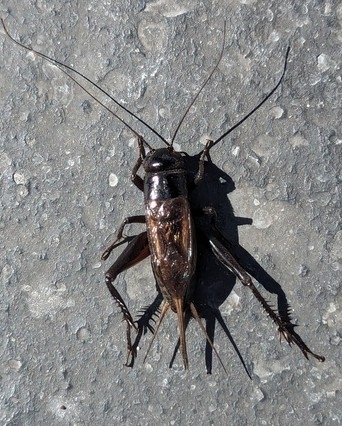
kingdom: Animalia
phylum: Arthropoda
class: Insecta
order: Orthoptera
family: Gryllidae
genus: Teleogryllus
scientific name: Teleogryllus commodus
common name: Black field cricket
